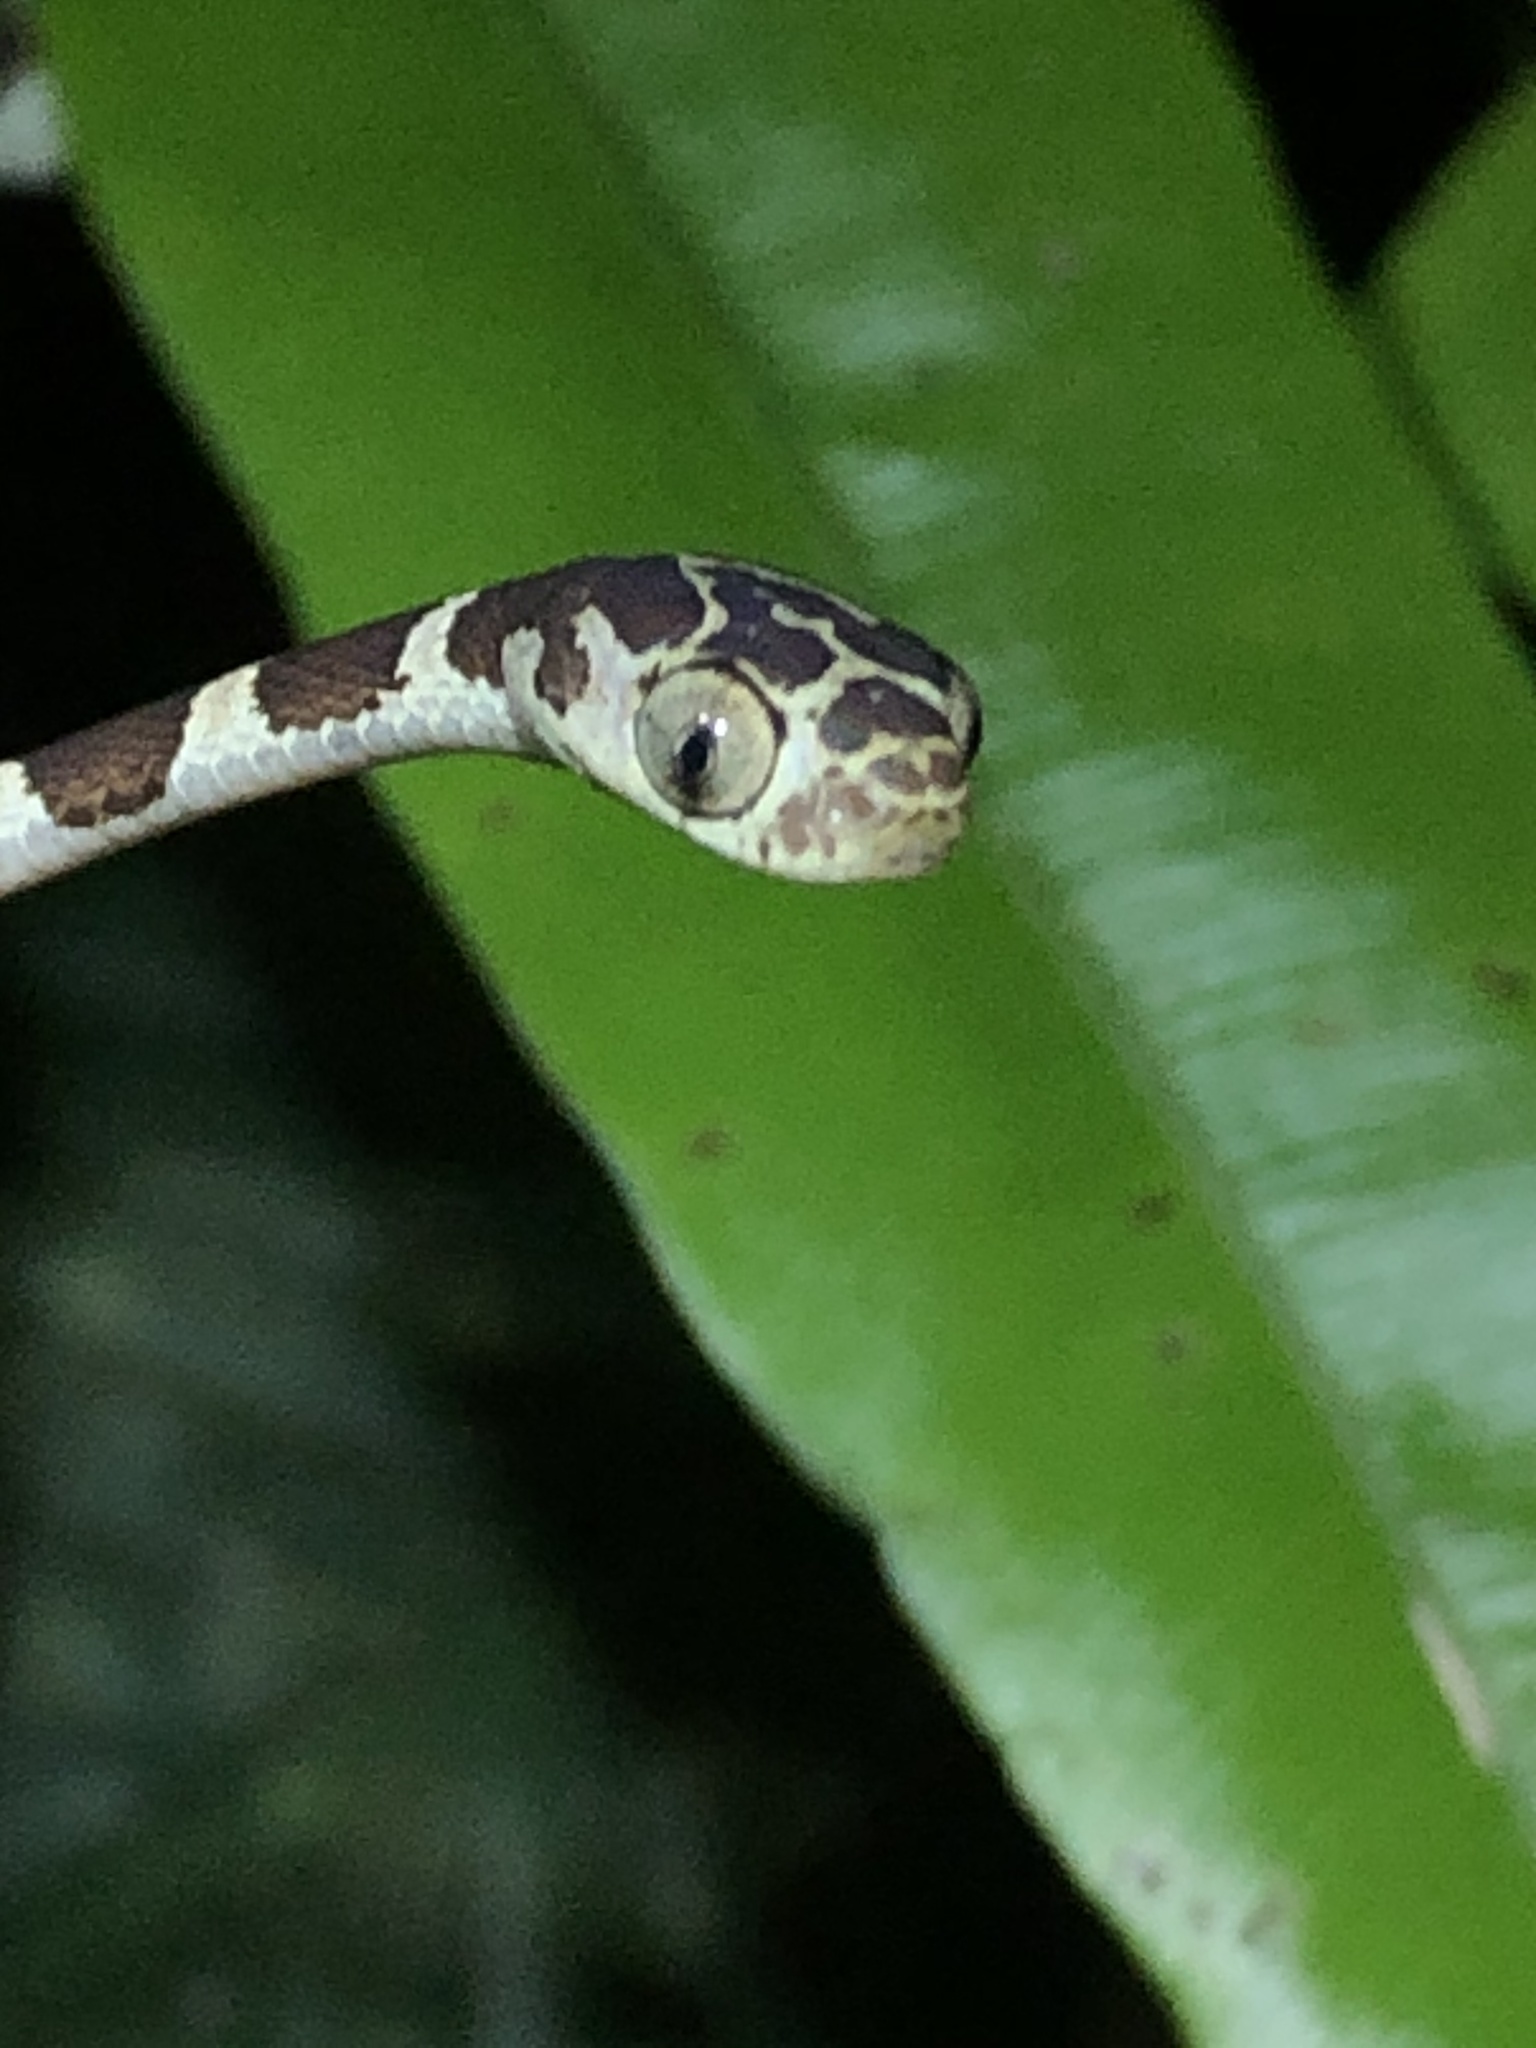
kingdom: Animalia
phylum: Chordata
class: Squamata
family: Colubridae
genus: Imantodes
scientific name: Imantodes cenchoa
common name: Blunthead tree snake
